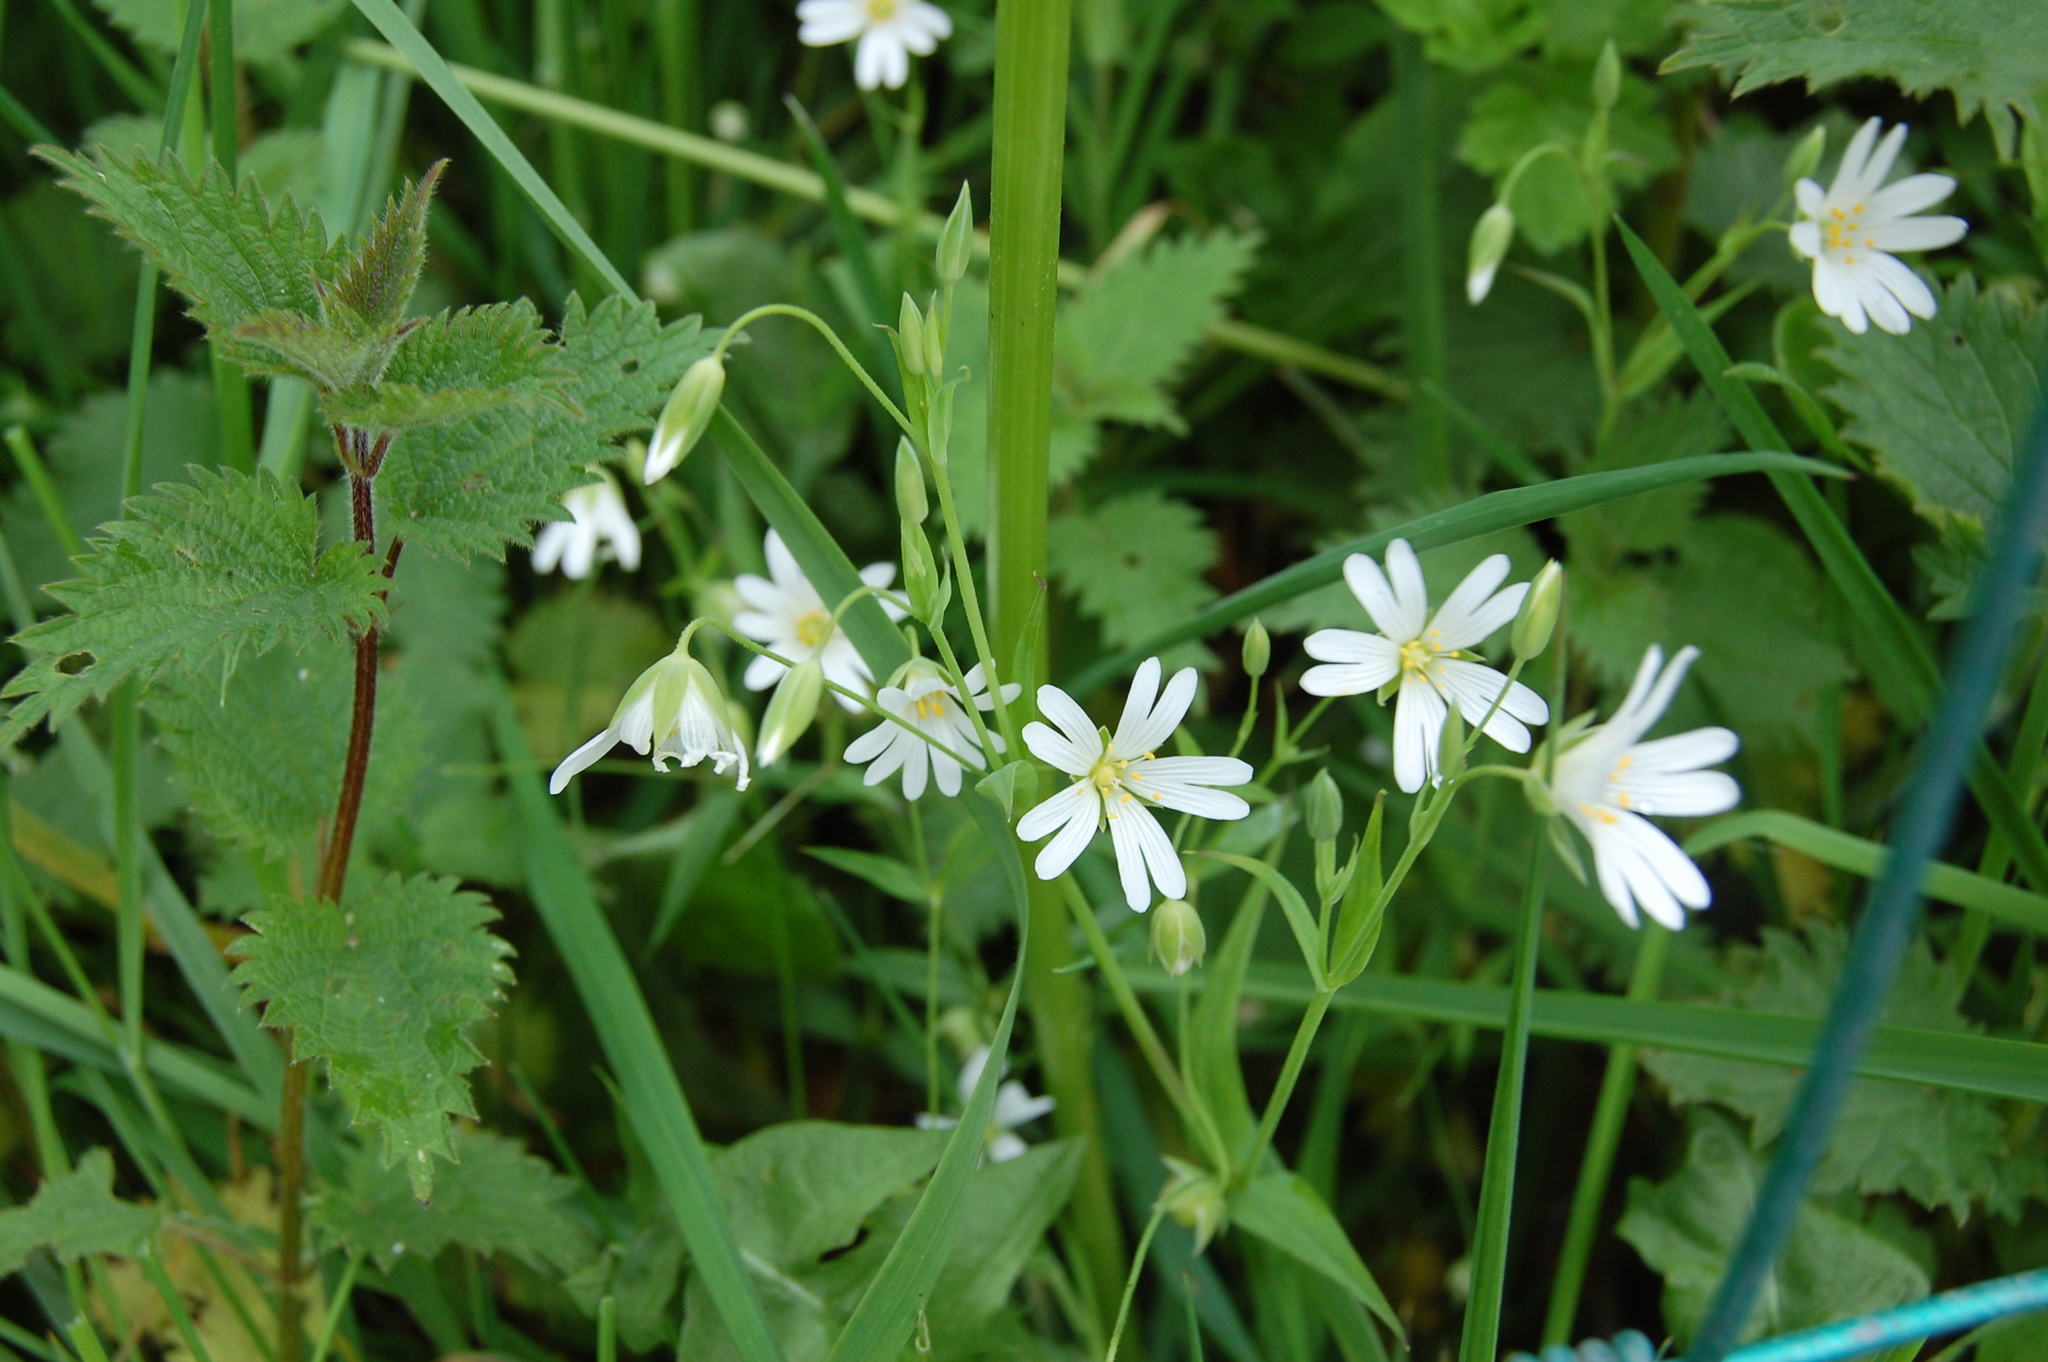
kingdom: Plantae
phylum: Tracheophyta
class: Magnoliopsida
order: Caryophyllales
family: Caryophyllaceae
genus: Rabelera
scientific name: Rabelera holostea
